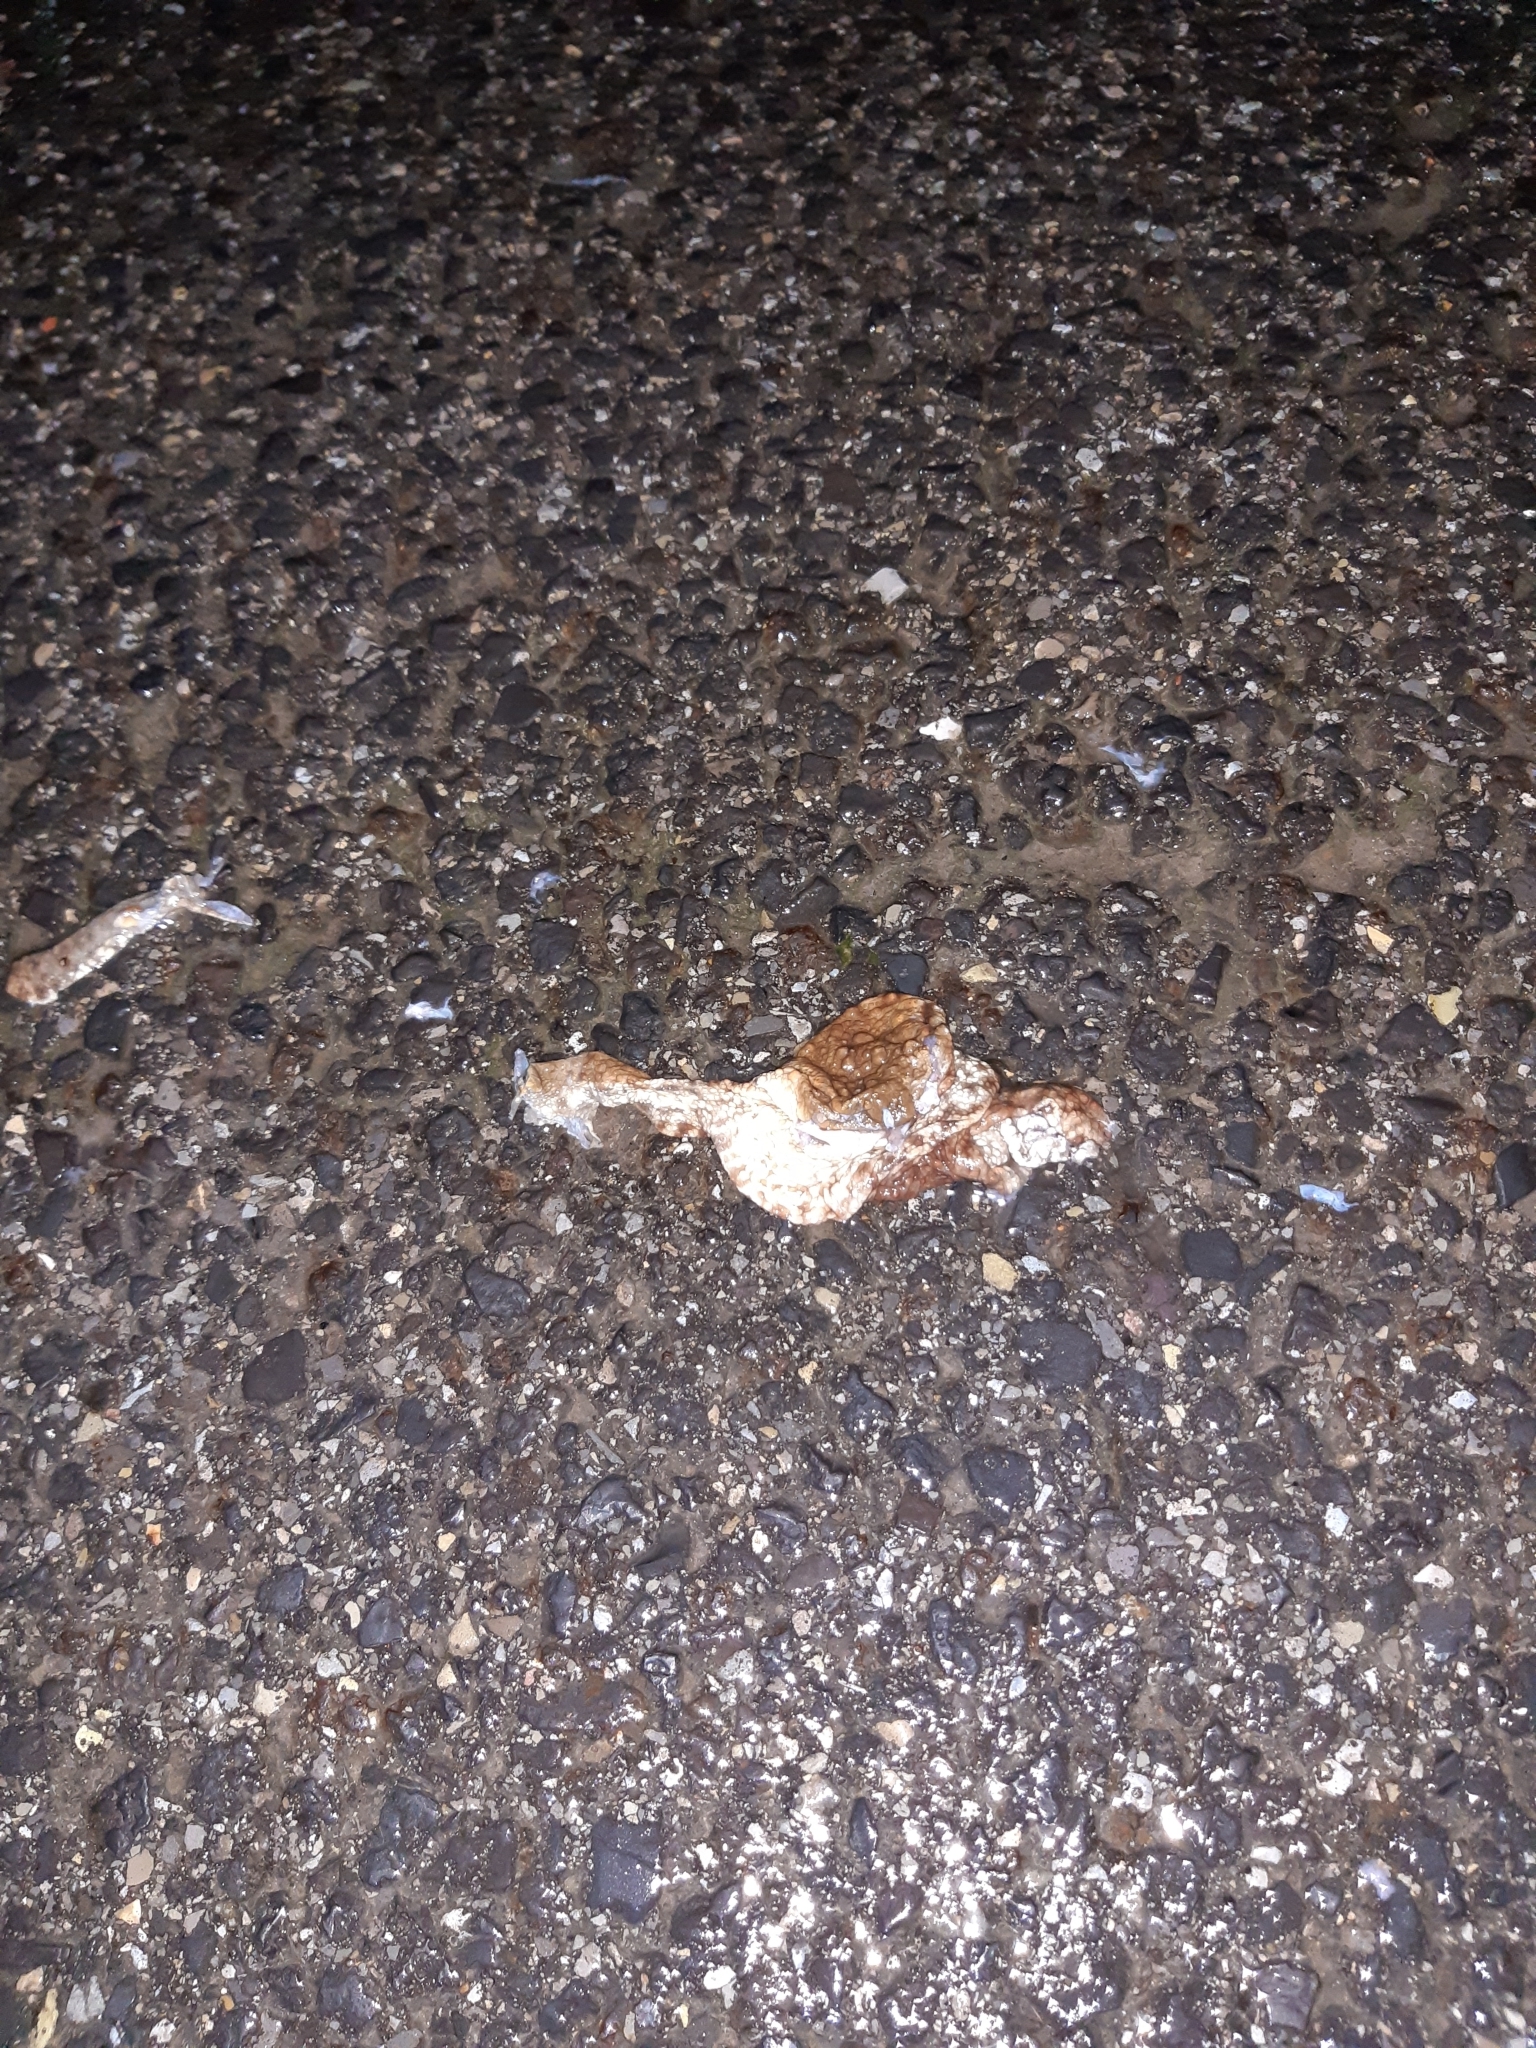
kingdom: Animalia
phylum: Chordata
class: Amphibia
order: Anura
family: Bufonidae
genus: Bufo
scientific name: Bufo bufo
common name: Common toad
